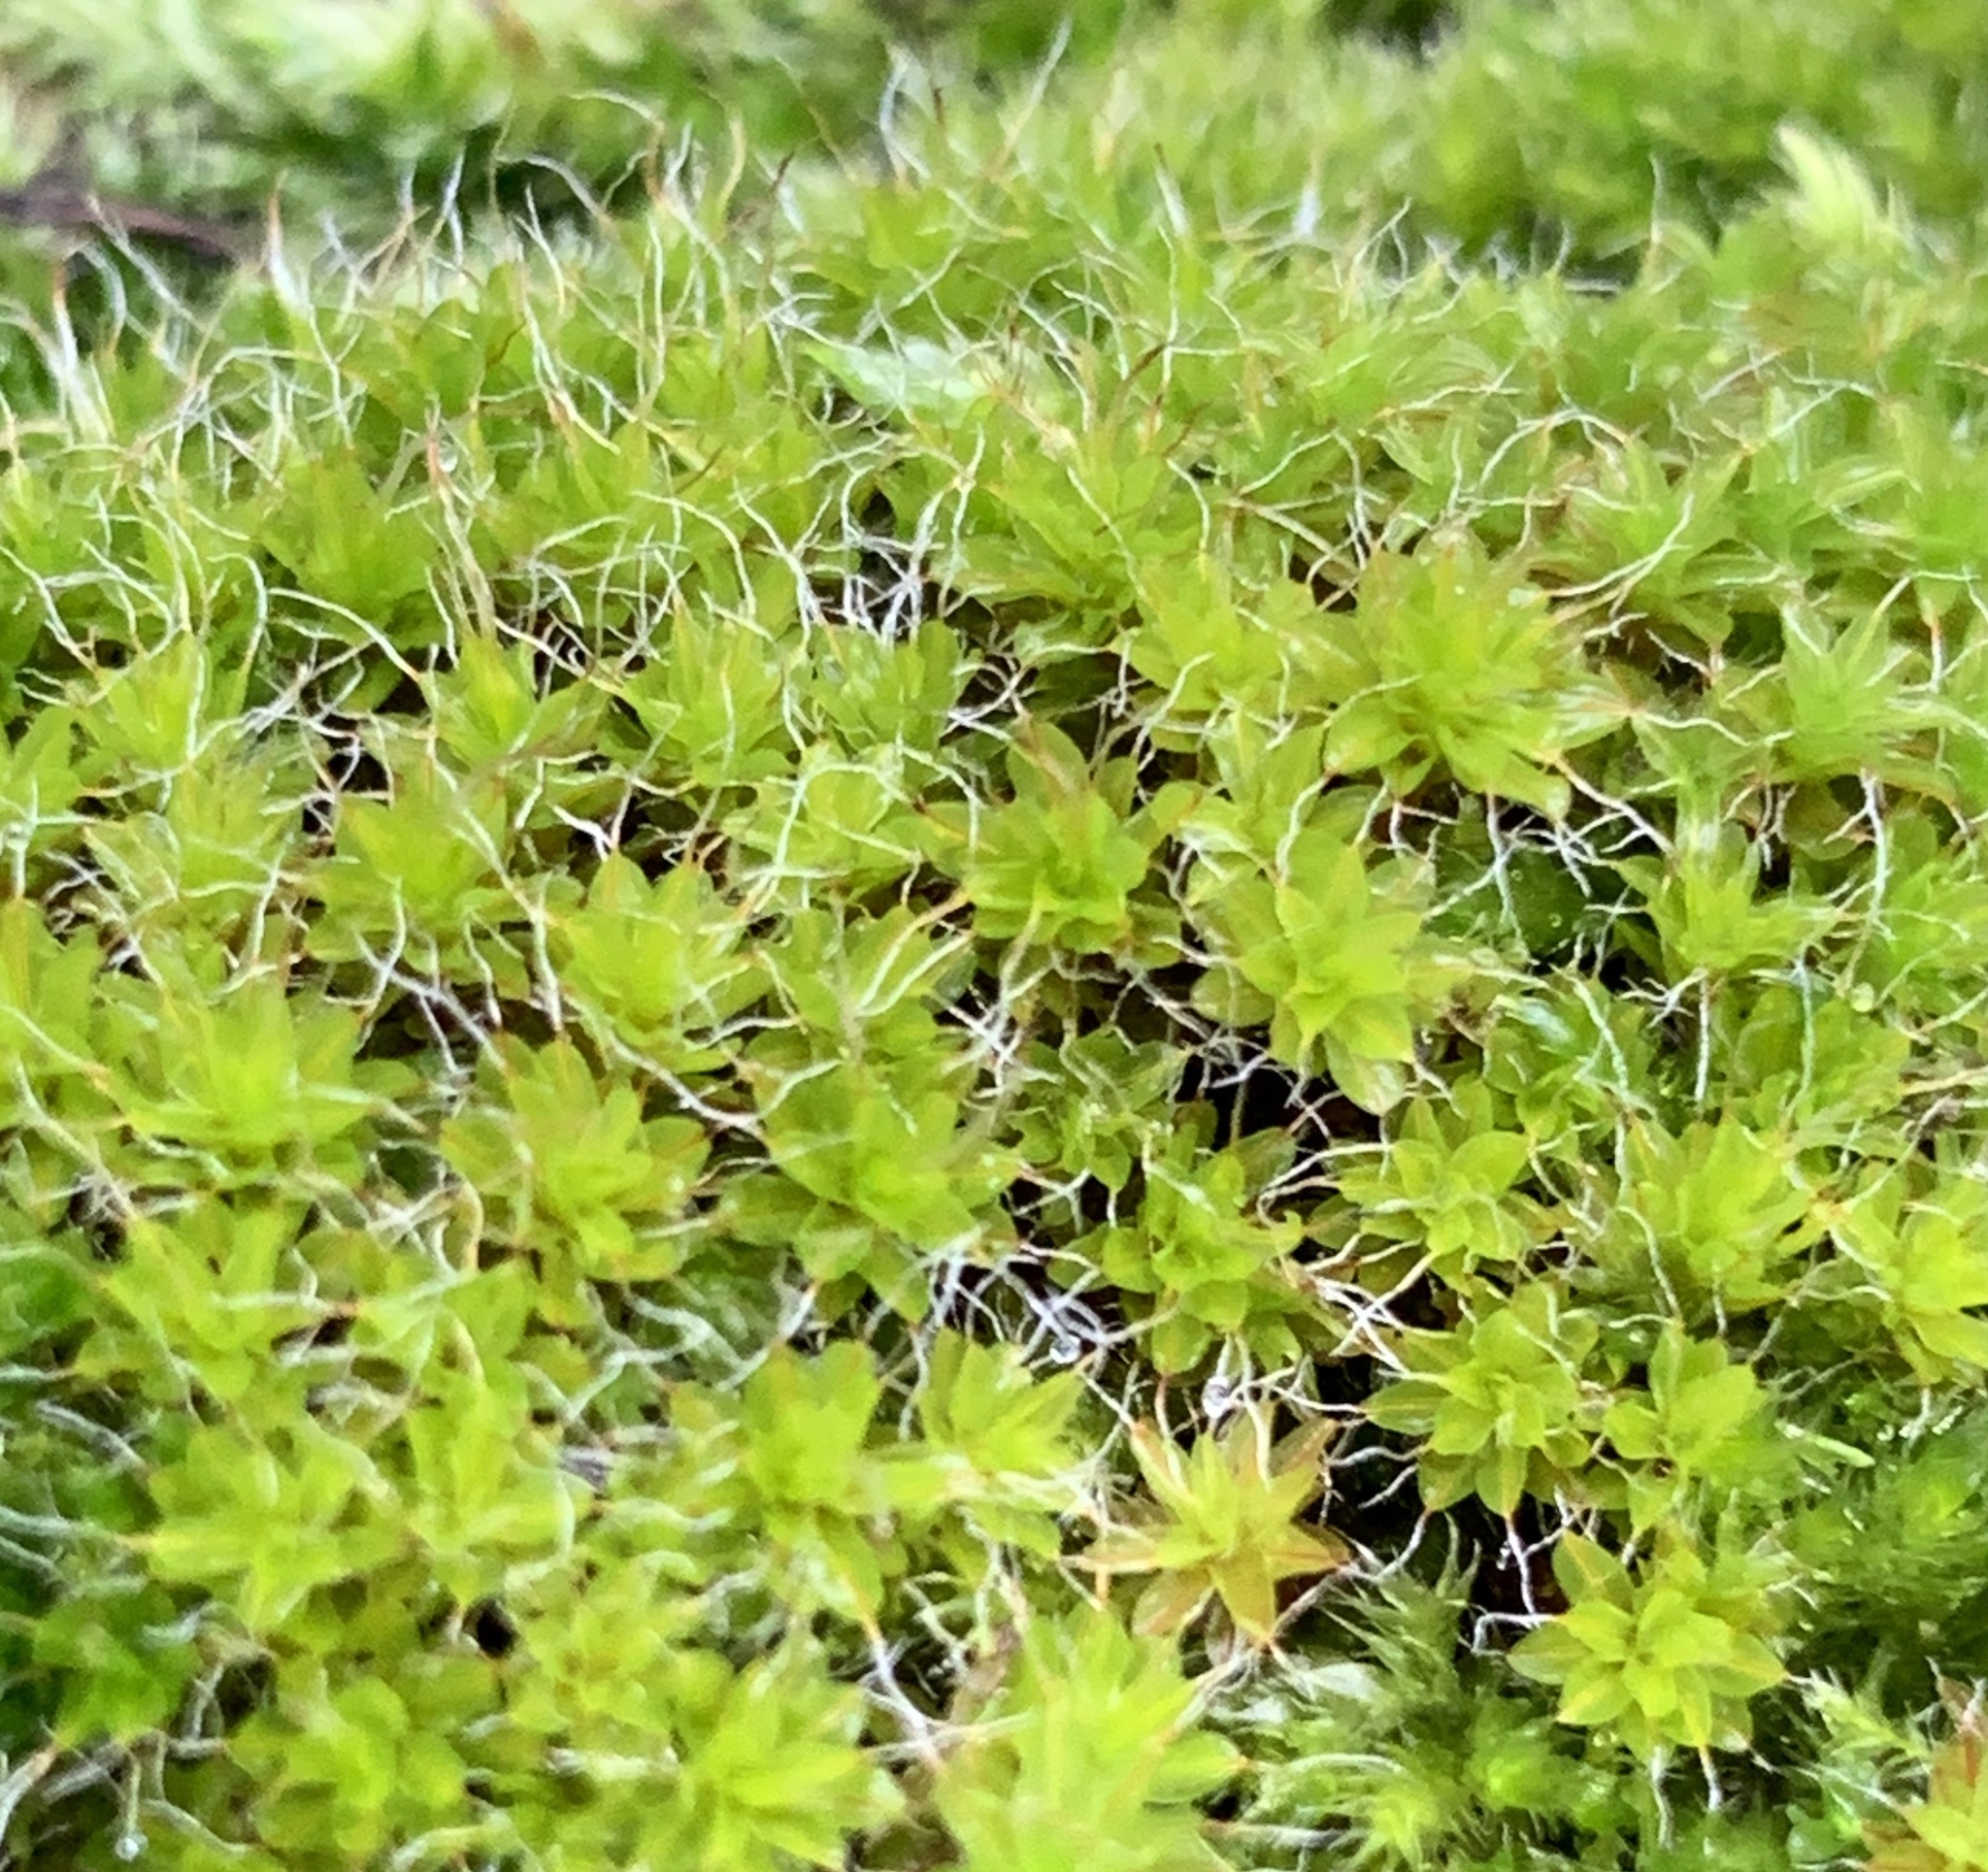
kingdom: Plantae
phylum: Bryophyta
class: Bryopsida
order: Pottiales
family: Pottiaceae
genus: Syntrichia
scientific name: Syntrichia montana
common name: Intermediate screw-moss
